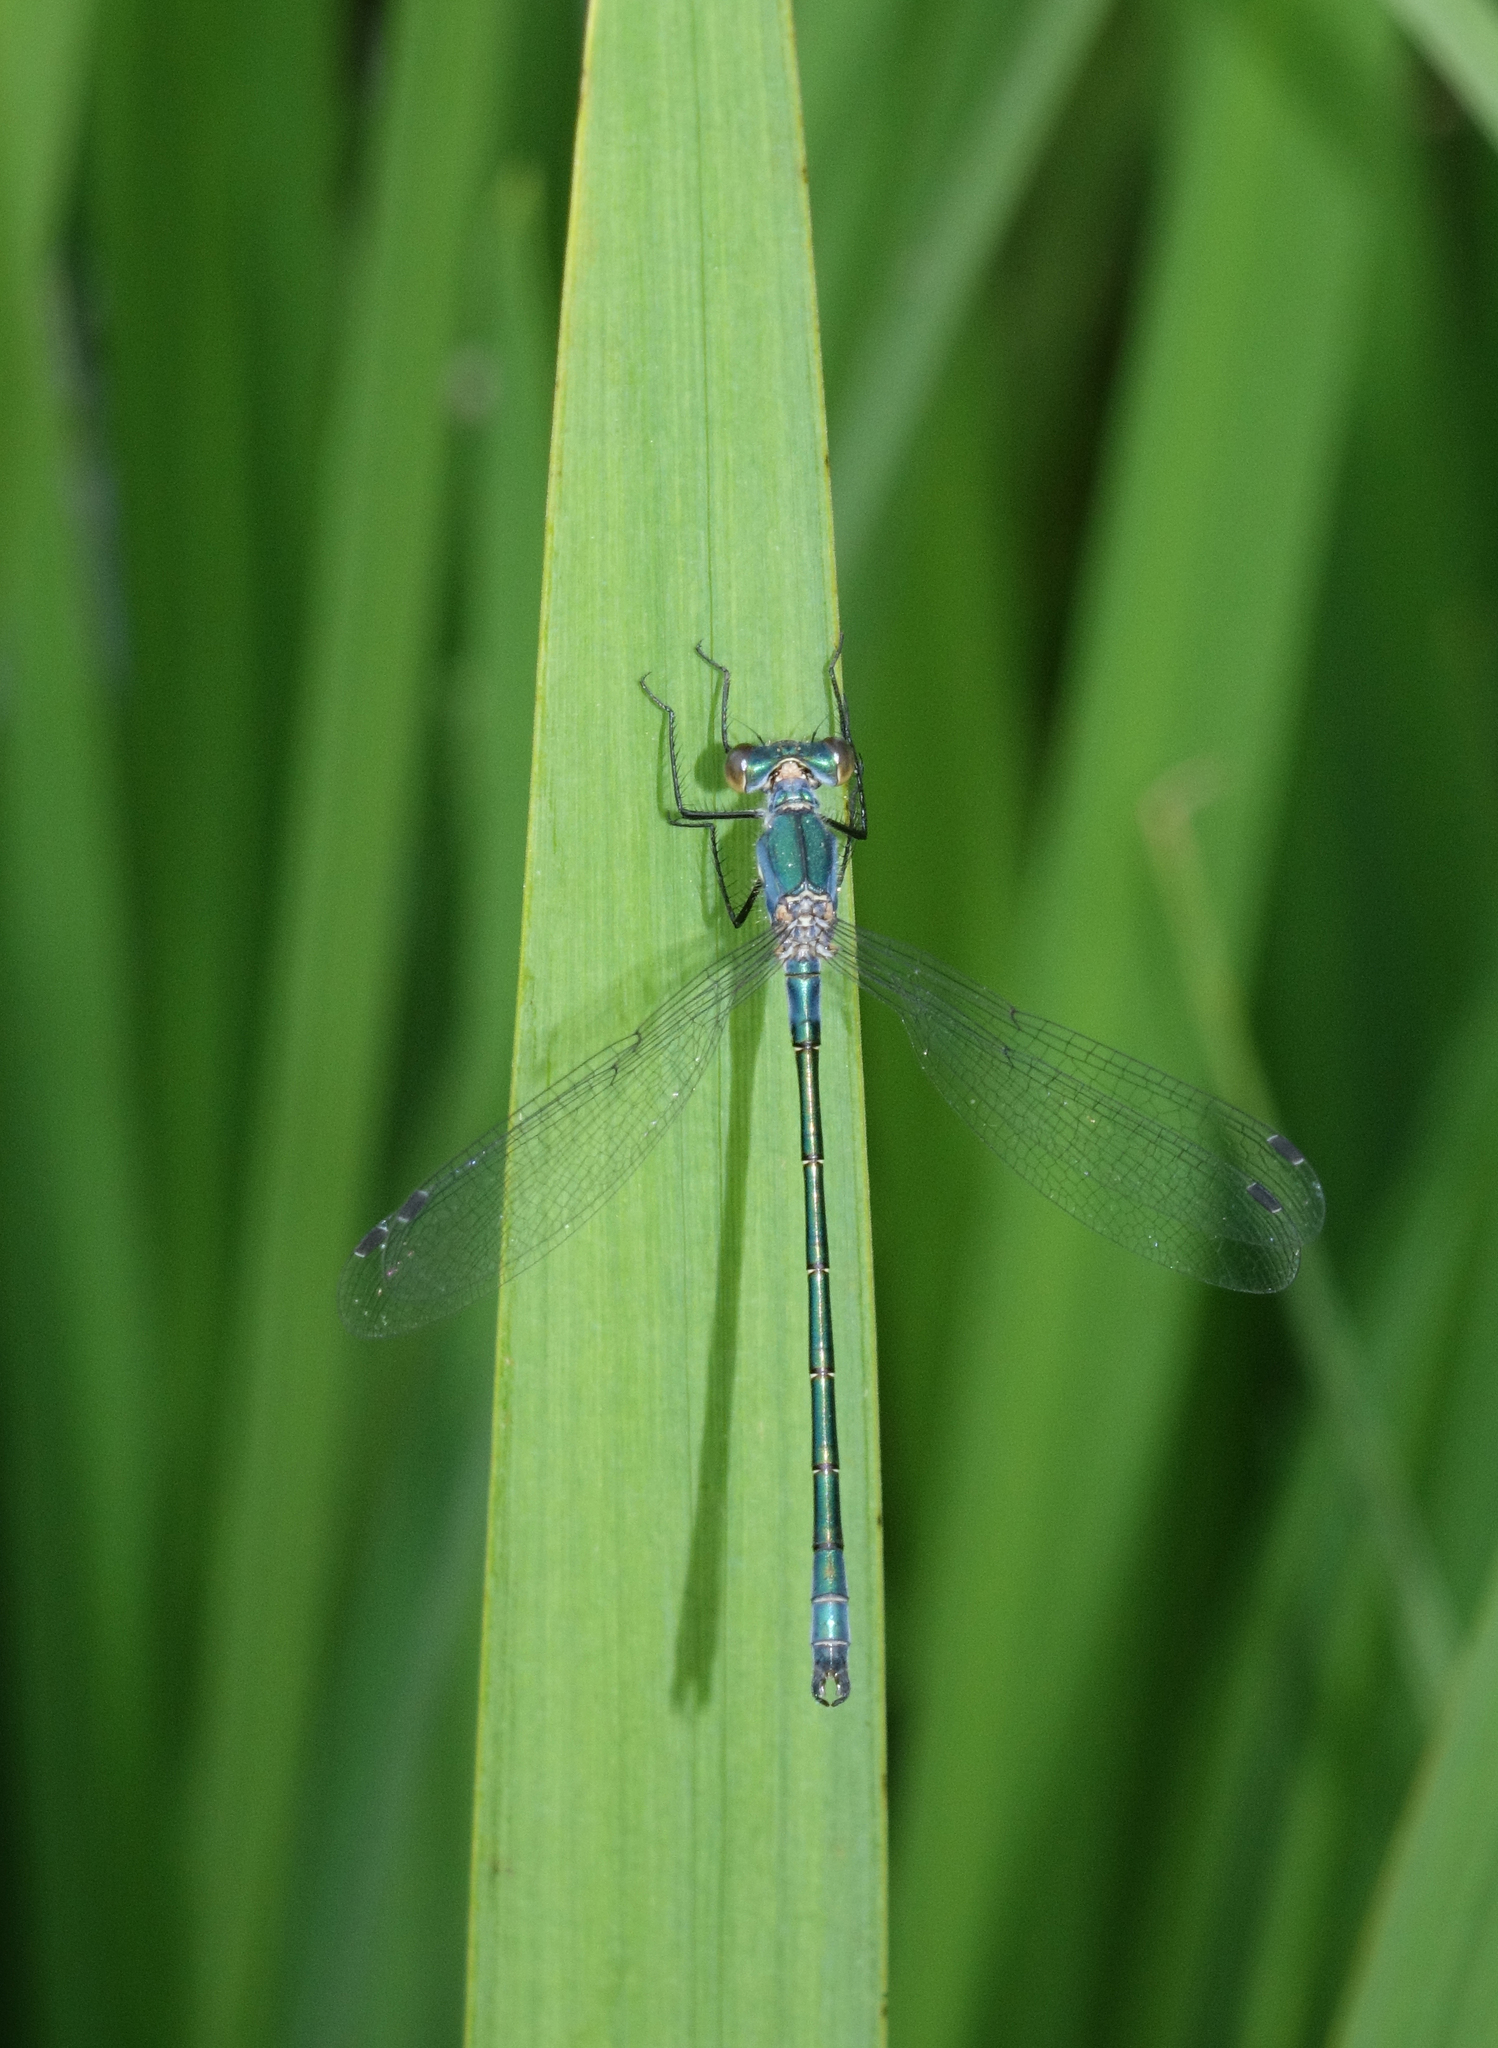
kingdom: Animalia
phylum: Arthropoda
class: Insecta
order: Odonata
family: Lestidae
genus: Lestes
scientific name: Lestes dryas
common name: Scarce emerald damselfly
